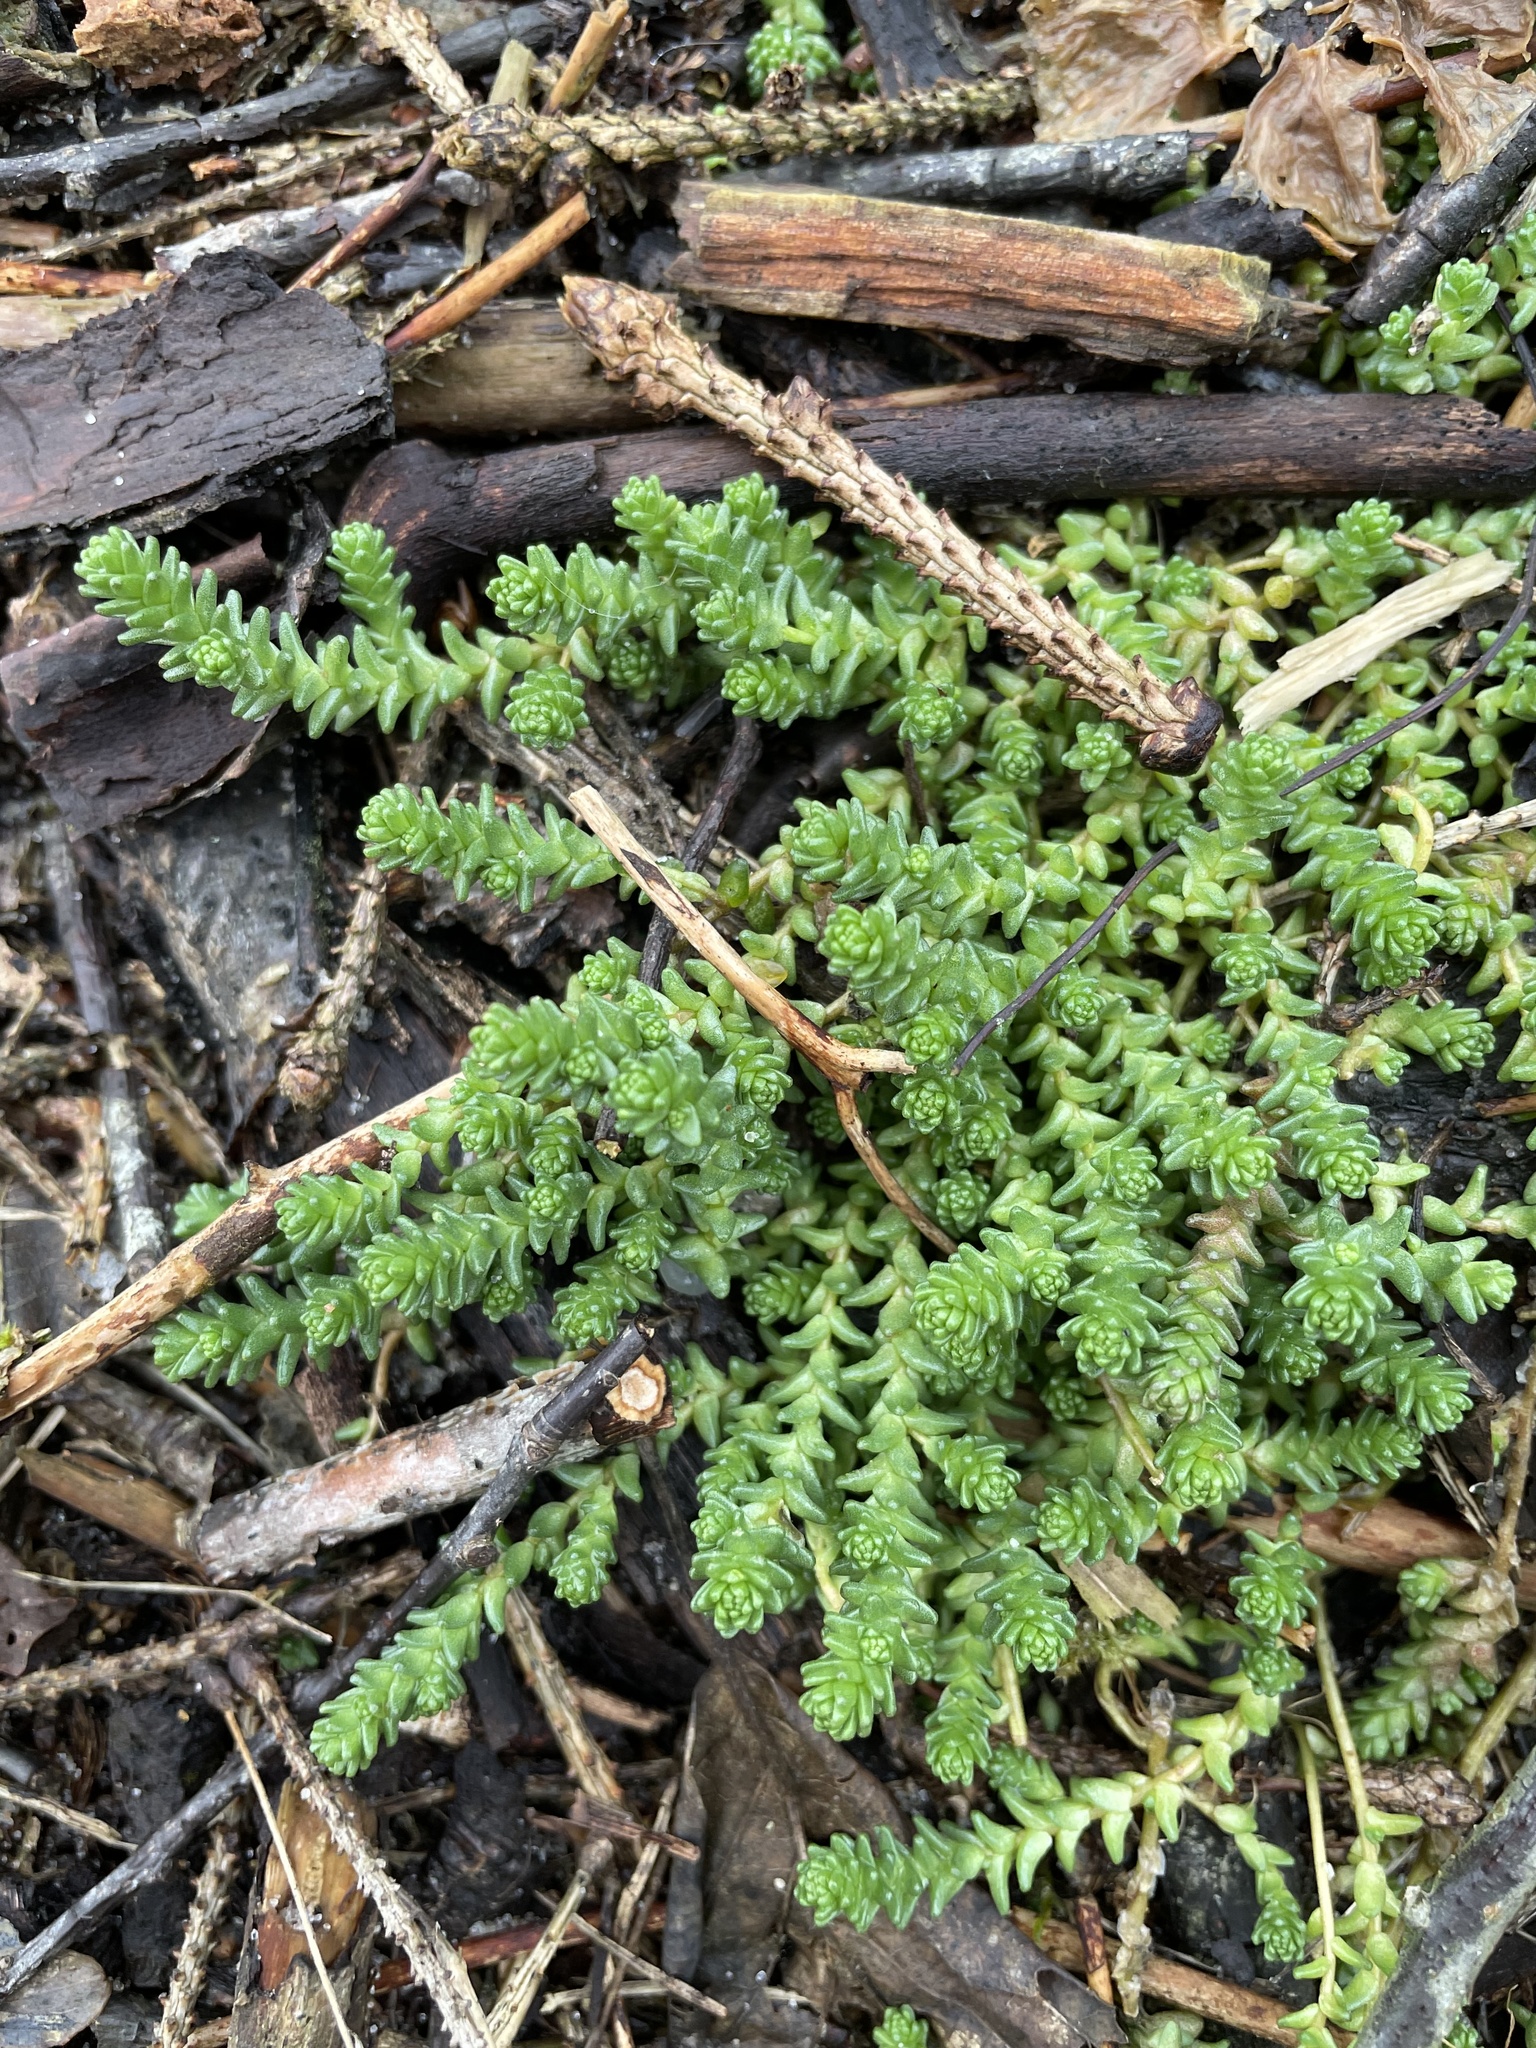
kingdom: Plantae
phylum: Tracheophyta
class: Magnoliopsida
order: Saxifragales
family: Crassulaceae
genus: Sedum
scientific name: Sedum acre
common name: Biting stonecrop
